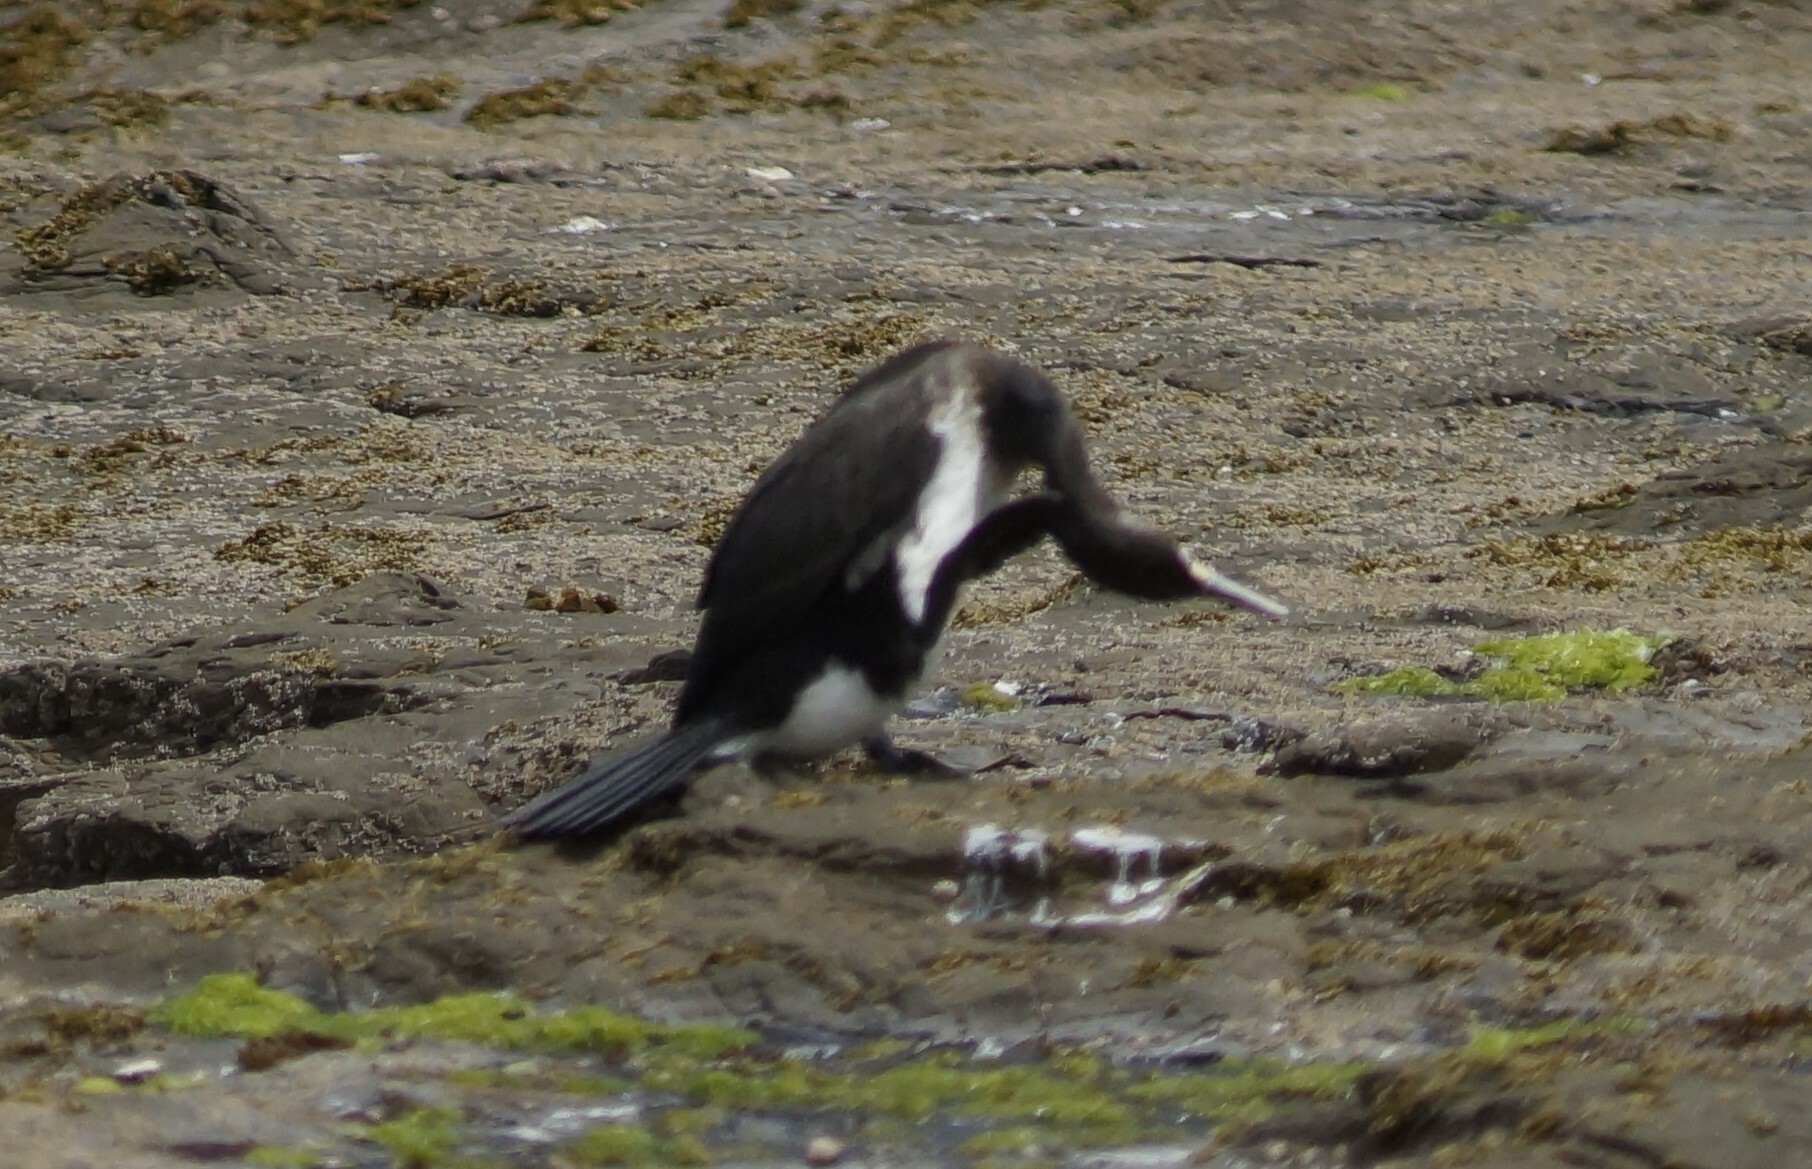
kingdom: Animalia
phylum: Chordata
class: Aves
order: Suliformes
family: Phalacrocoracidae
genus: Phalacrocorax
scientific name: Phalacrocorax varius
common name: Pied cormorant
